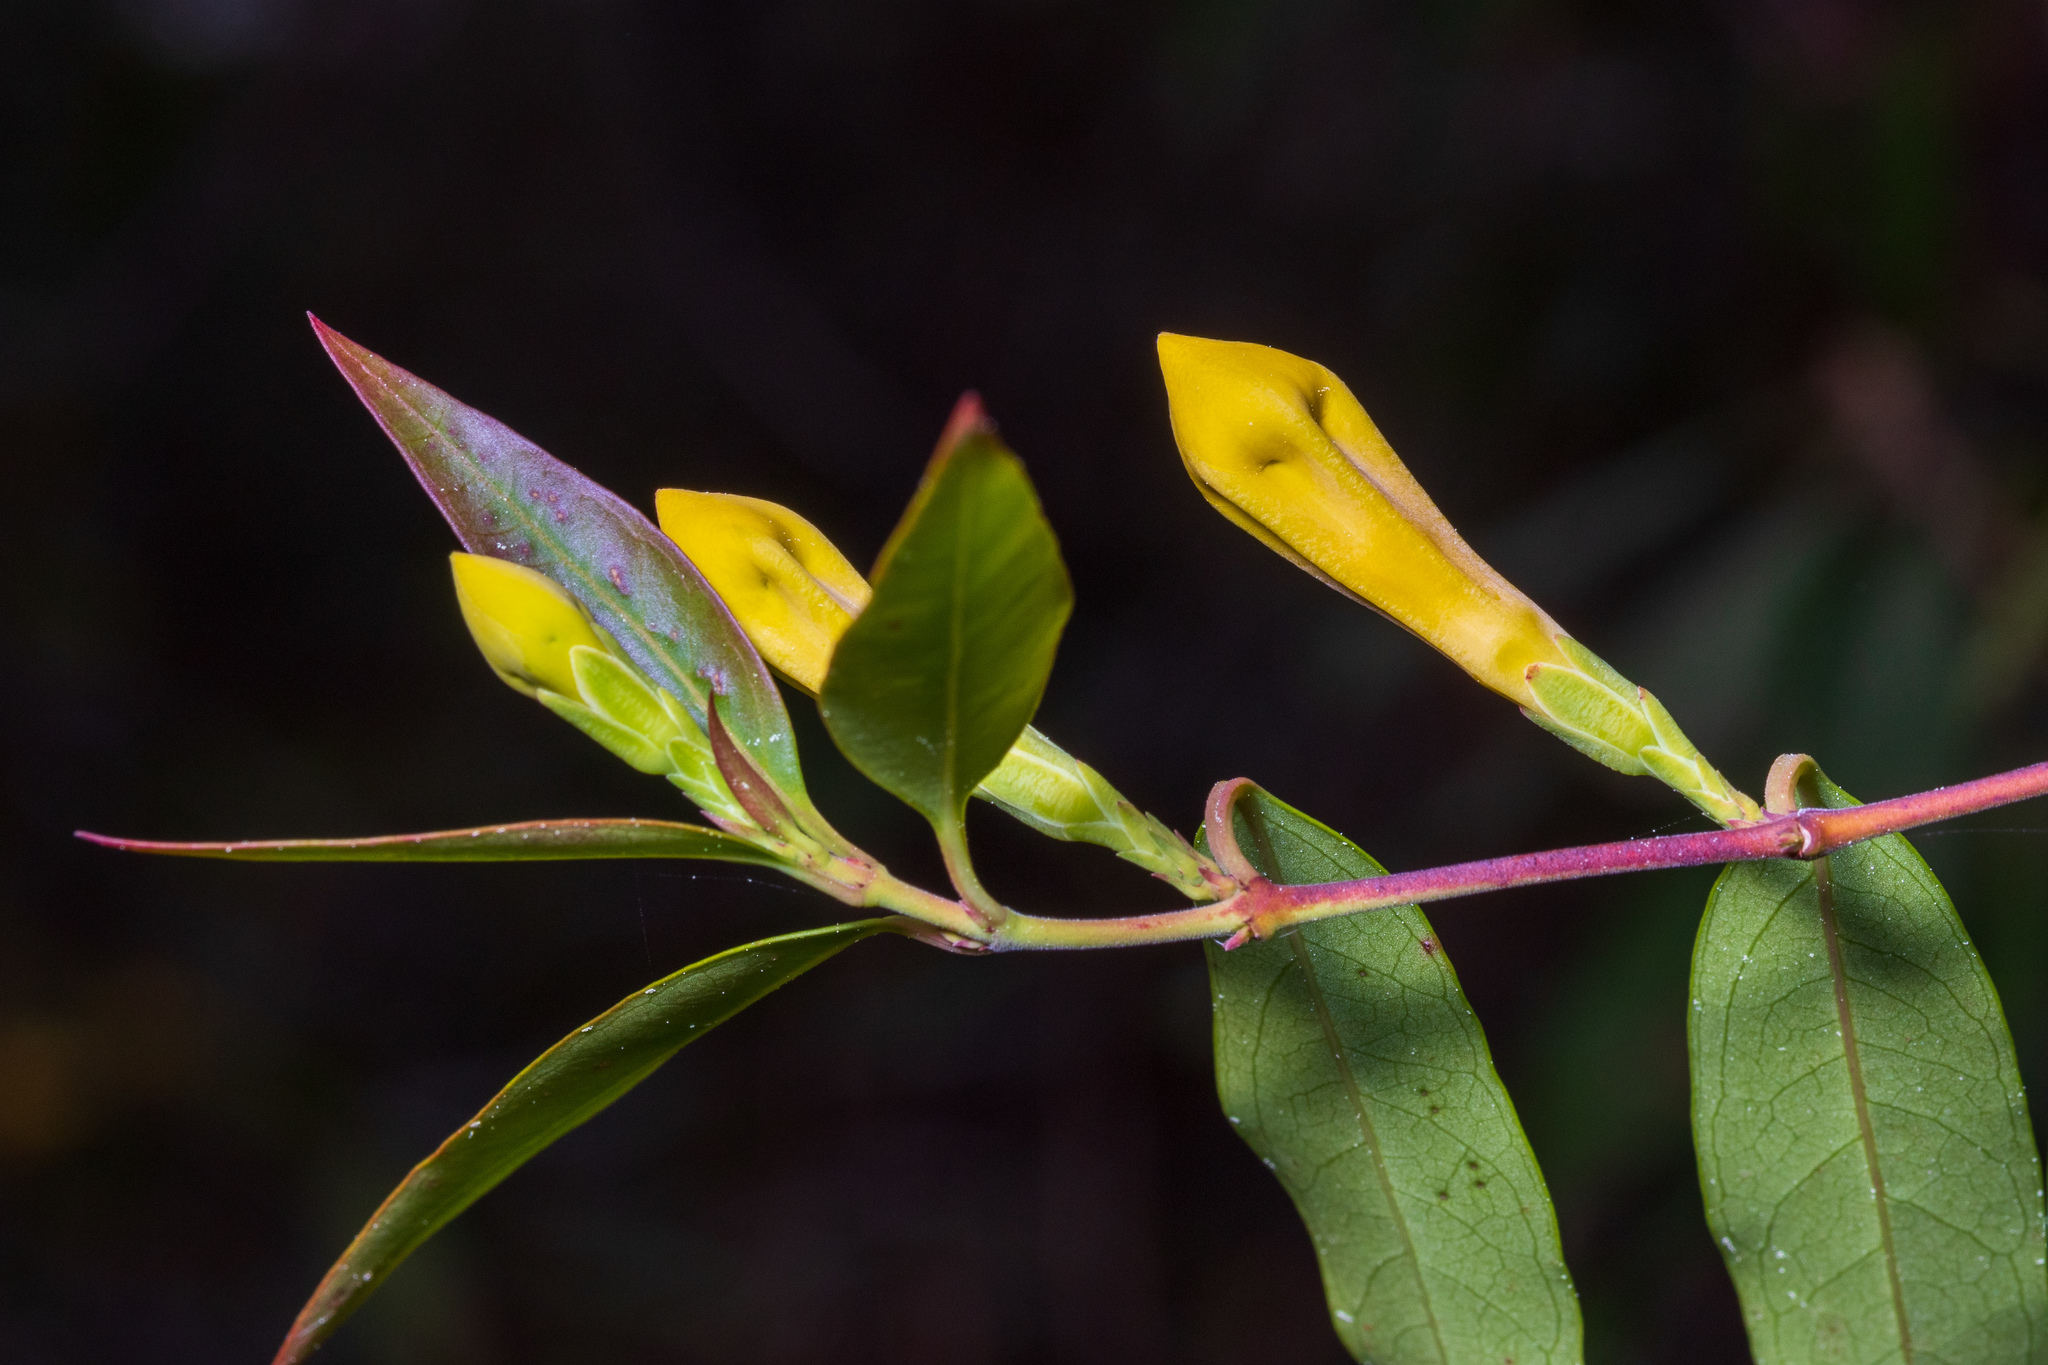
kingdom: Plantae
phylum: Tracheophyta
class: Magnoliopsida
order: Gentianales
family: Gelsemiaceae
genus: Gelsemium
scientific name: Gelsemium sempervirens
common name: Carolina-jasmine
